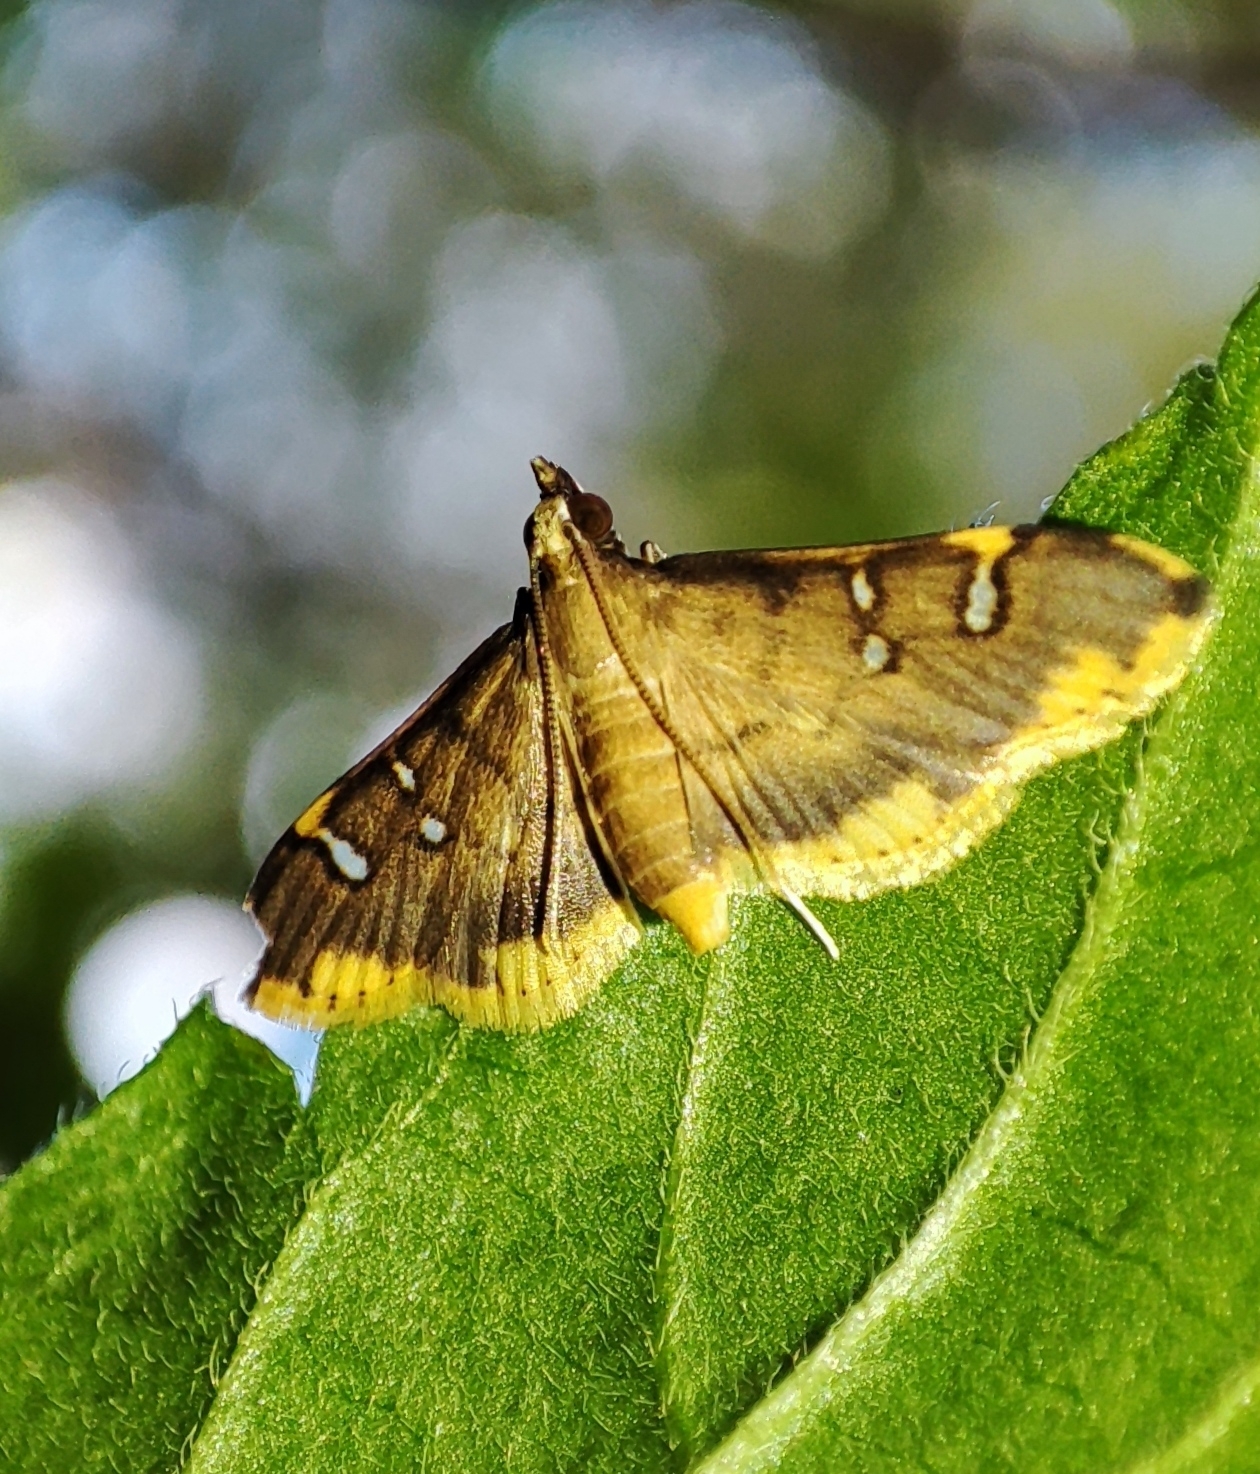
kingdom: Animalia
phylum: Arthropoda
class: Insecta
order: Lepidoptera
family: Crambidae
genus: Prophantis
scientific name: Prophantis adusta
